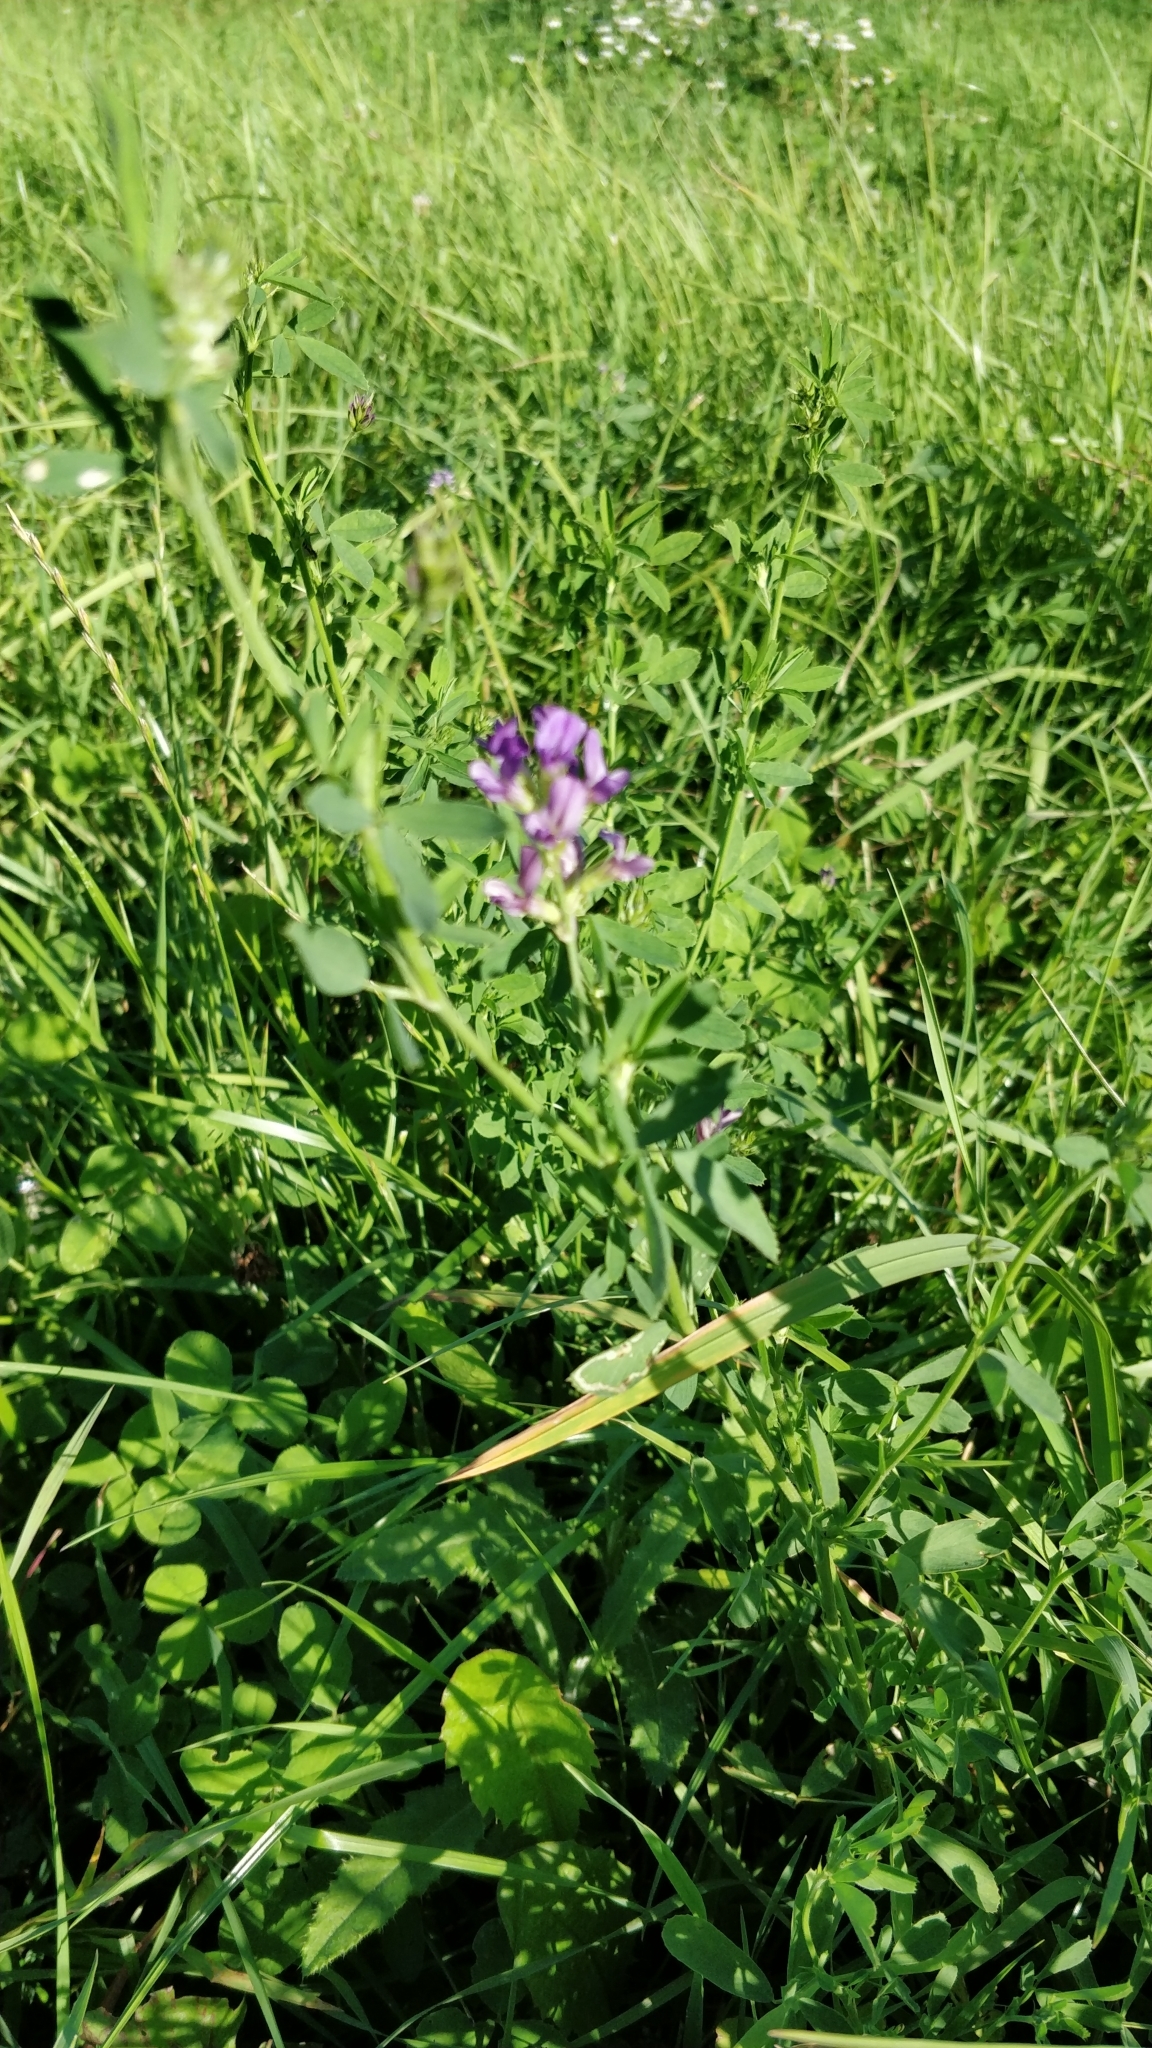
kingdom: Plantae
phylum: Tracheophyta
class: Magnoliopsida
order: Fabales
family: Fabaceae
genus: Medicago
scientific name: Medicago sativa
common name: Alfalfa
